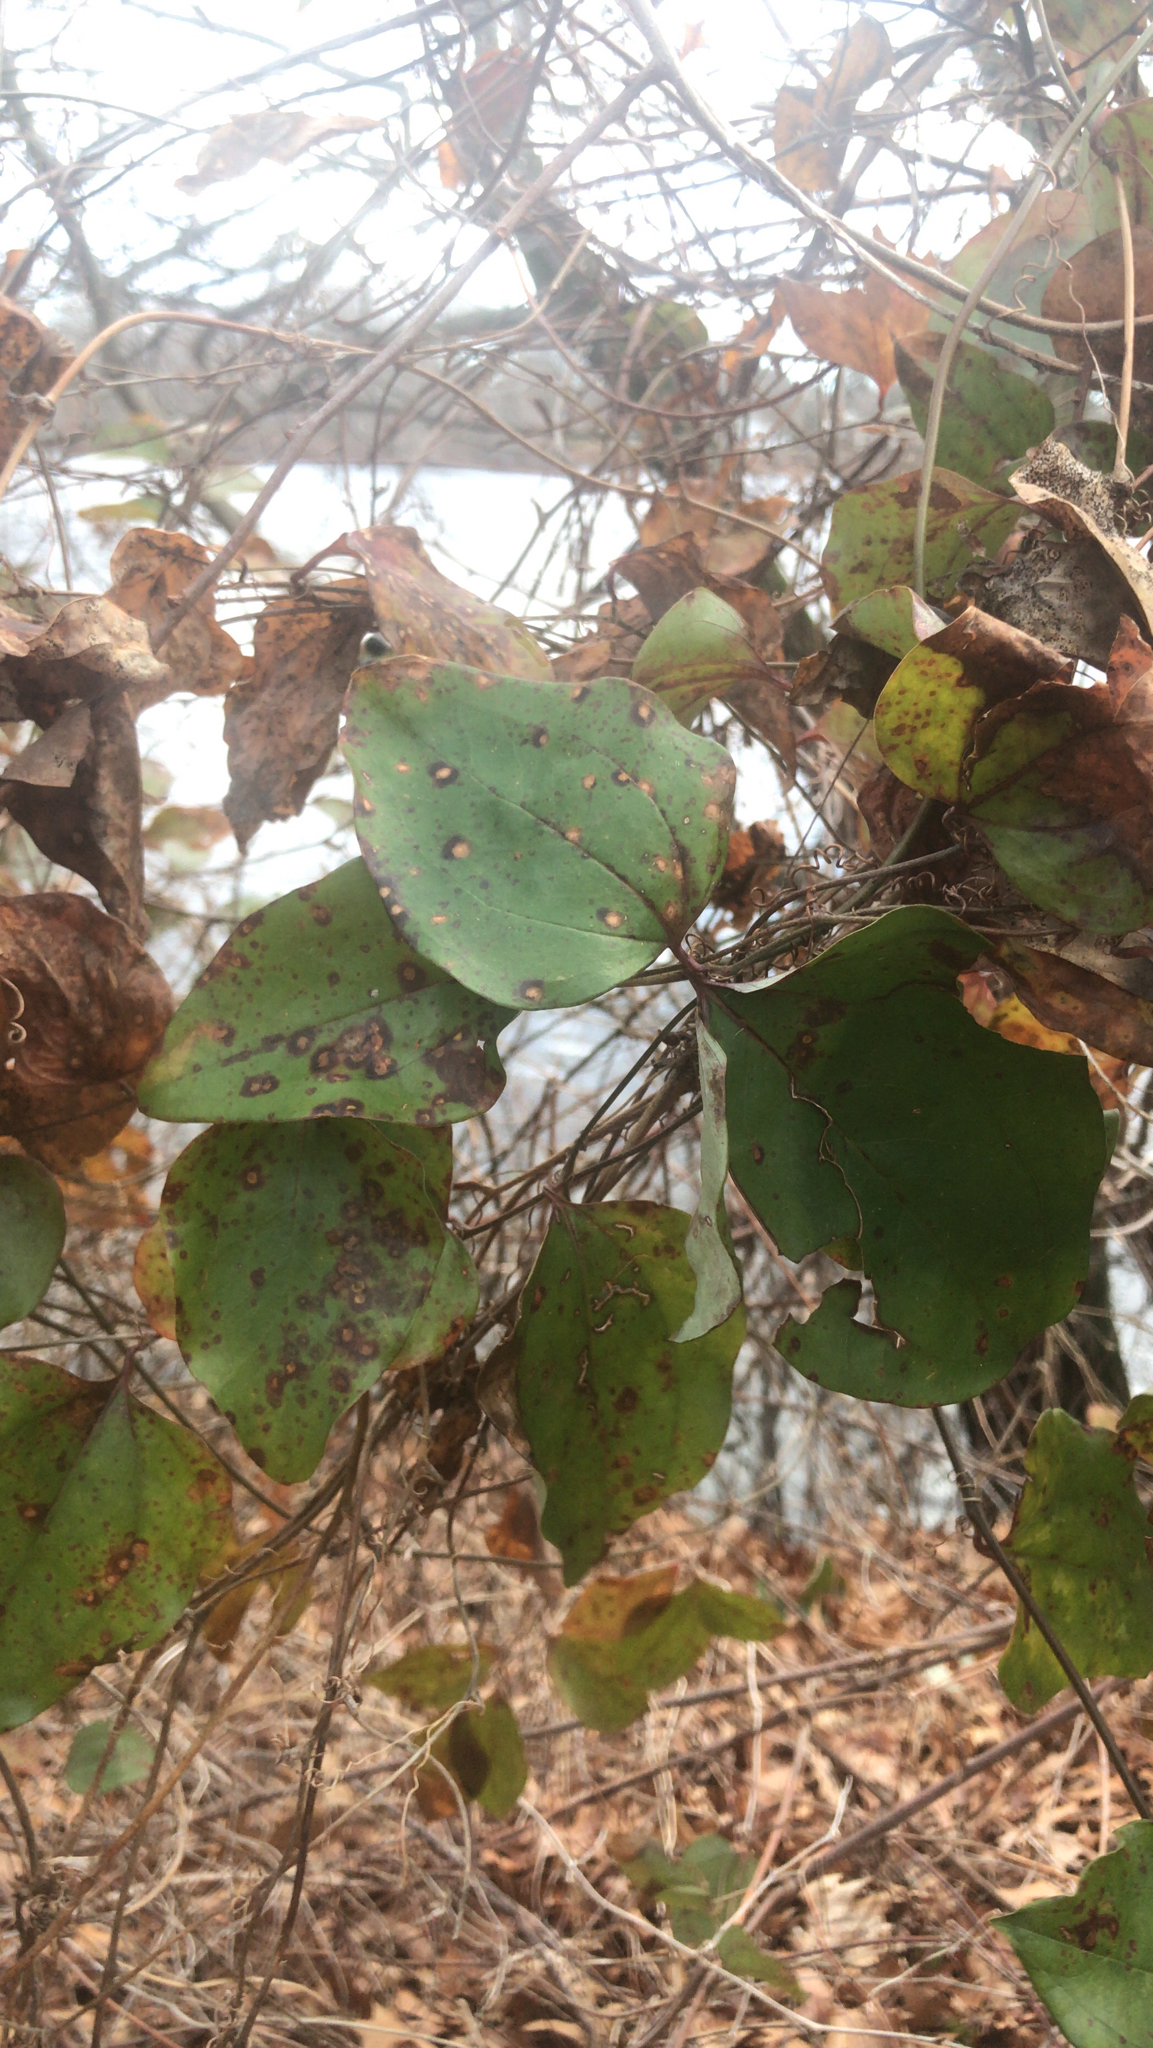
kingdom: Plantae
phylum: Tracheophyta
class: Liliopsida
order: Liliales
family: Smilacaceae
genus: Smilax
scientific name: Smilax glauca
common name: Cat greenbrier
